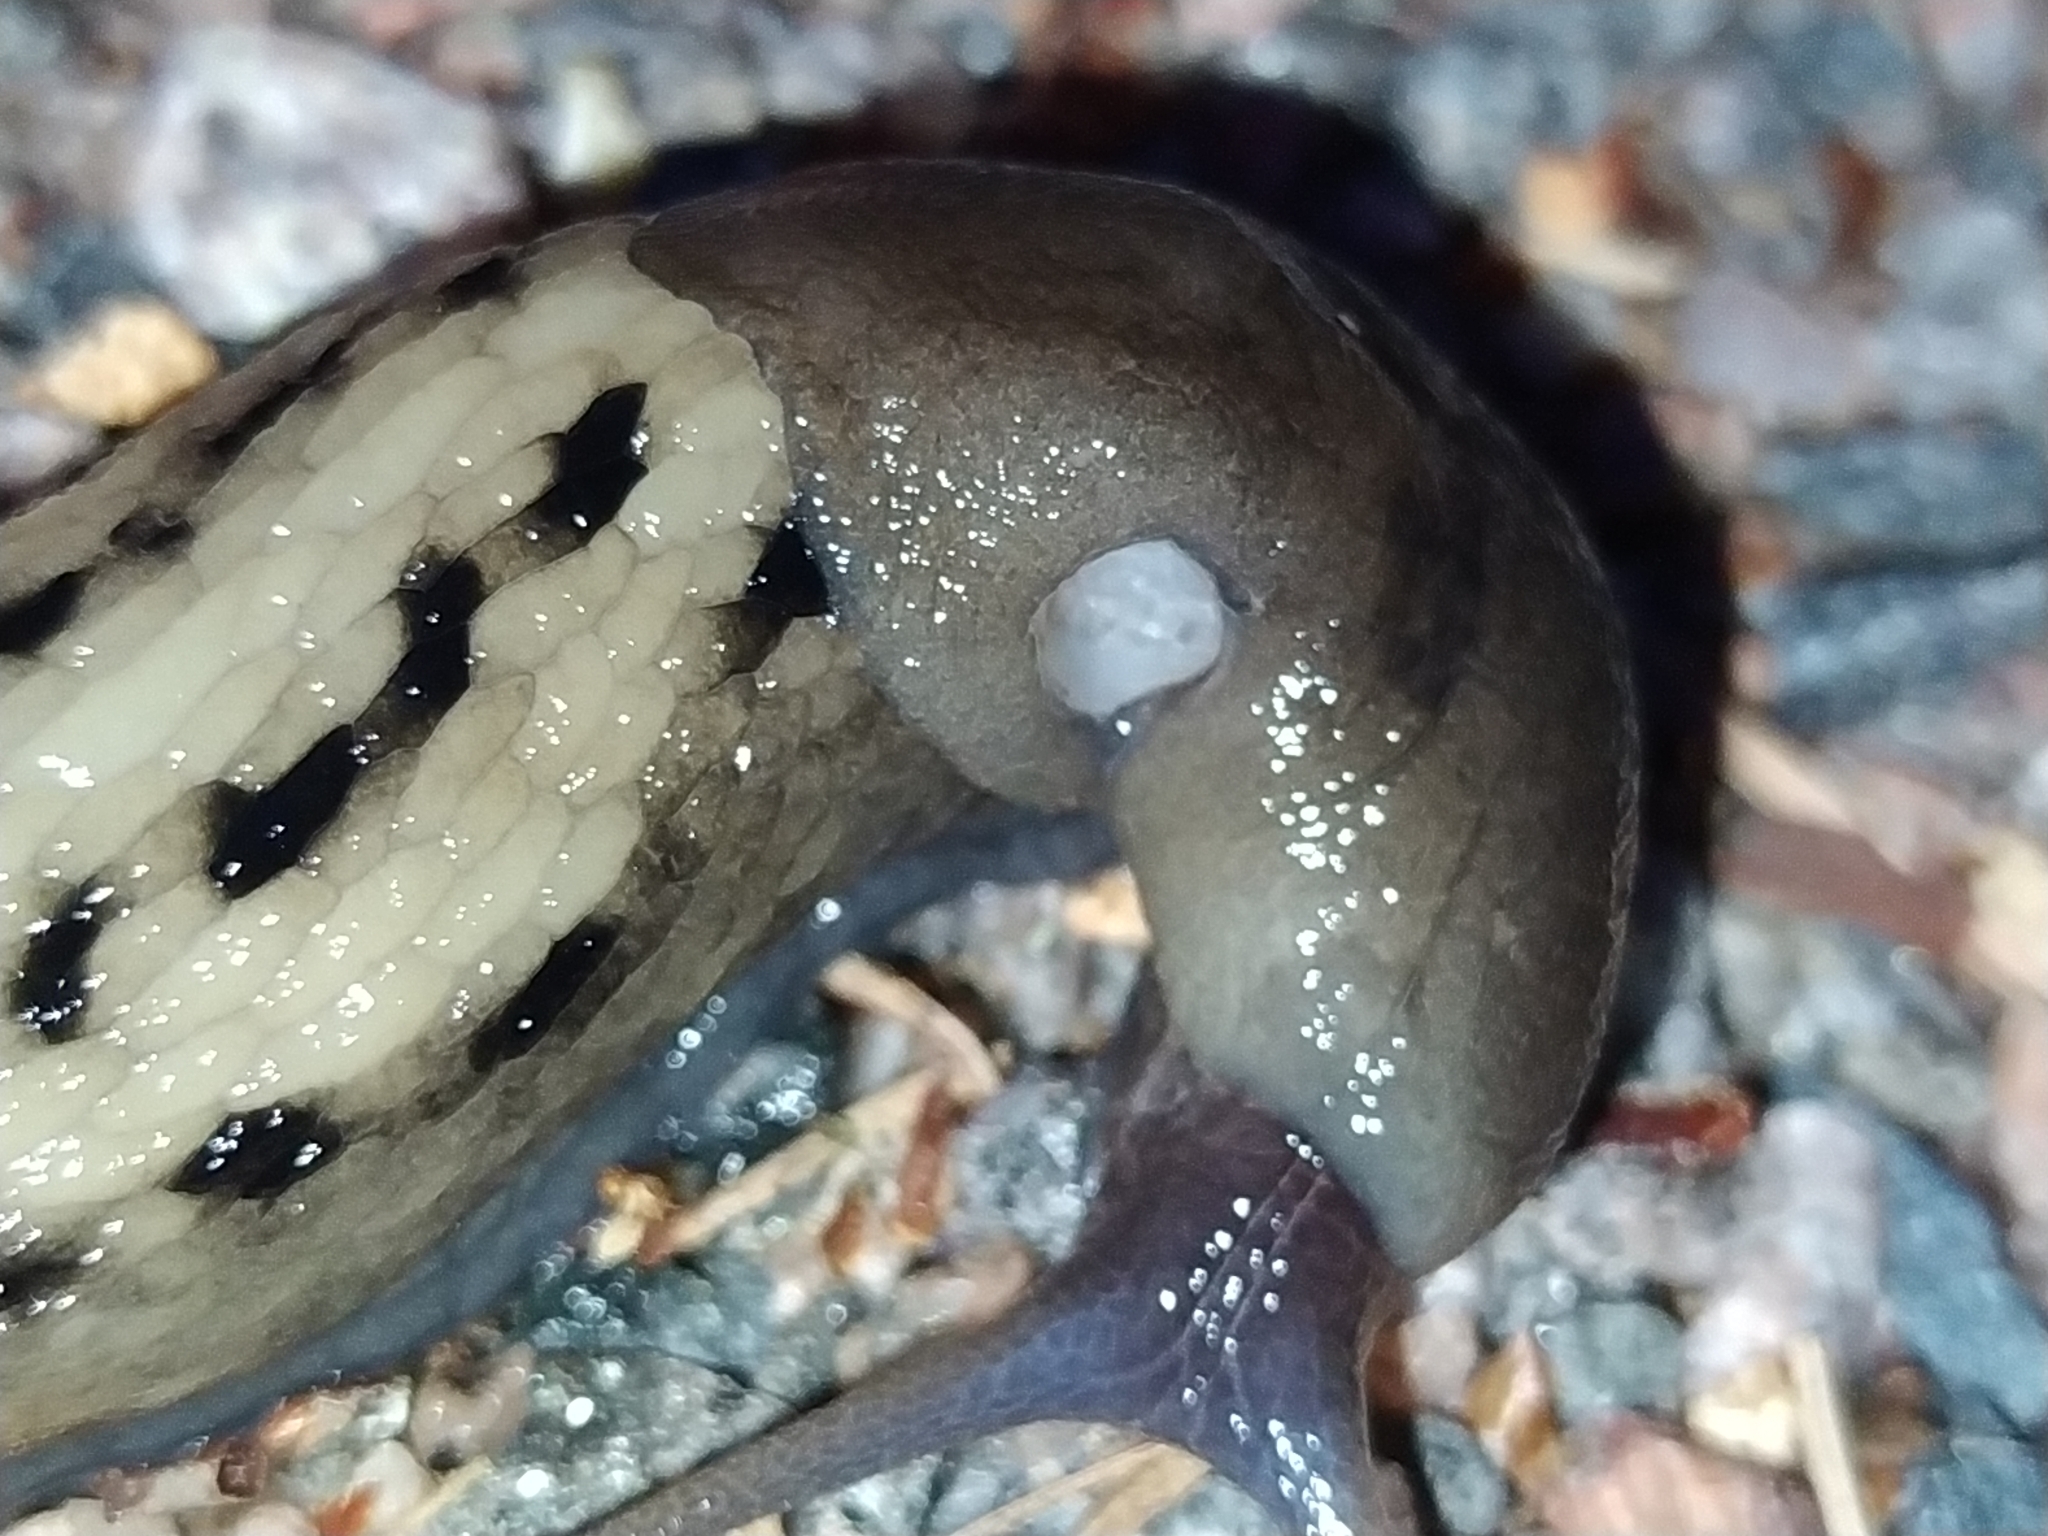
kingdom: Animalia
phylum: Mollusca
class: Gastropoda
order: Stylommatophora
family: Limacidae
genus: Limax
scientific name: Limax cinereoniger
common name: Ash-black slug
